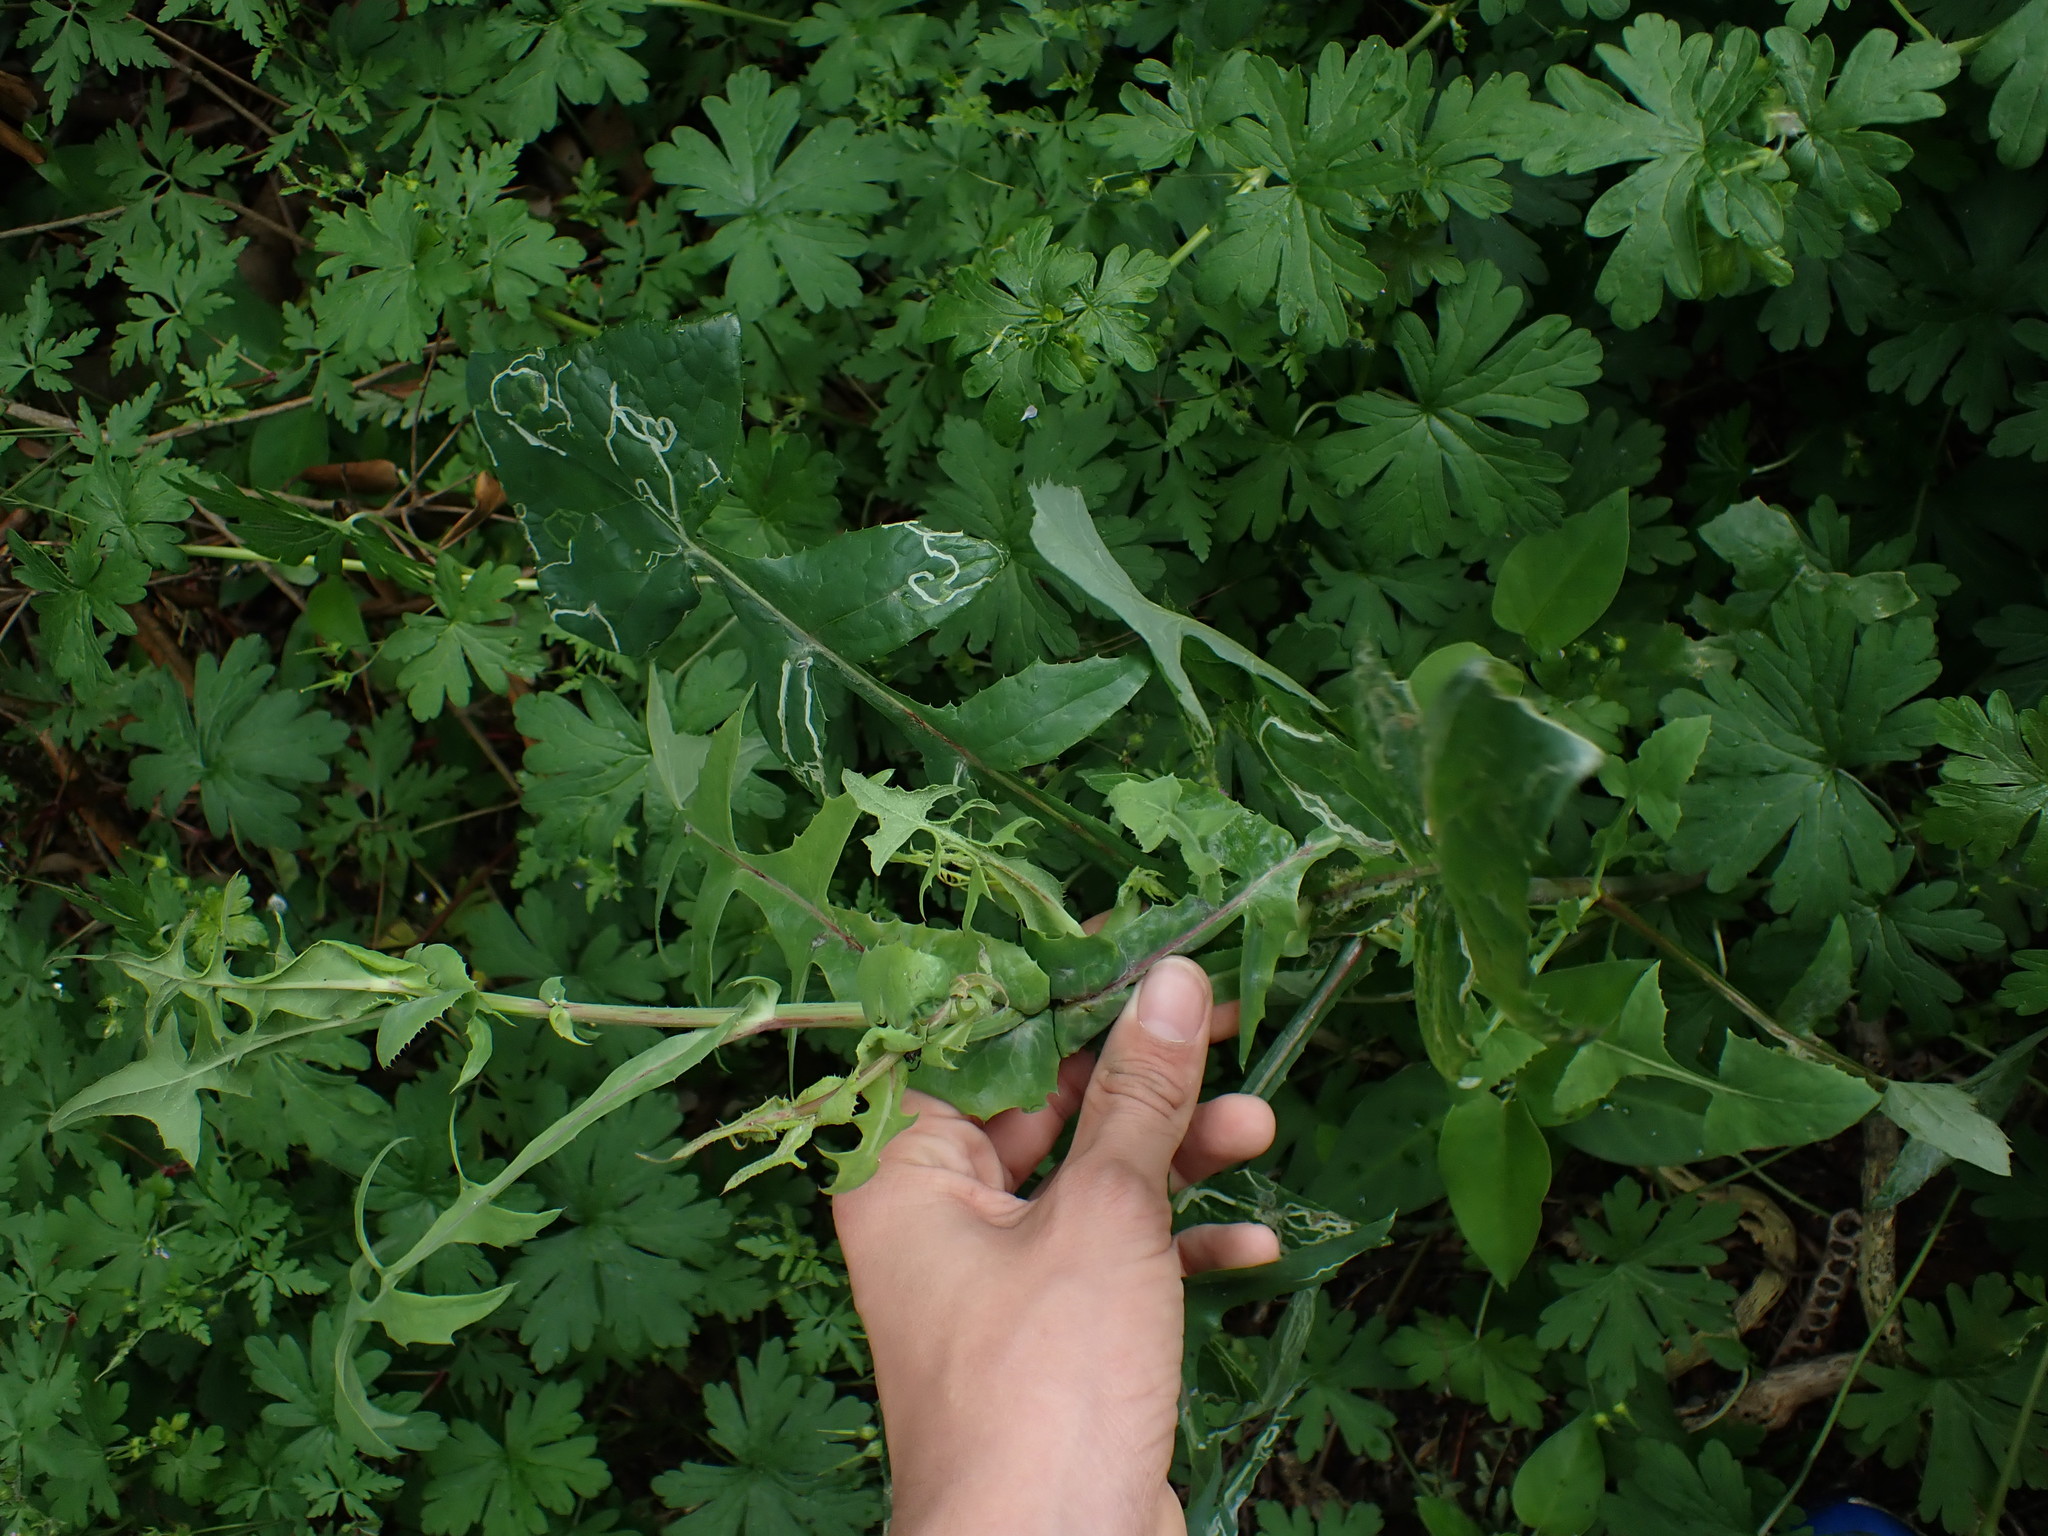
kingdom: Plantae
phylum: Tracheophyta
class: Magnoliopsida
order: Asterales
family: Asteraceae
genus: Sonchus
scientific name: Sonchus oleraceus
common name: Common sowthistle
